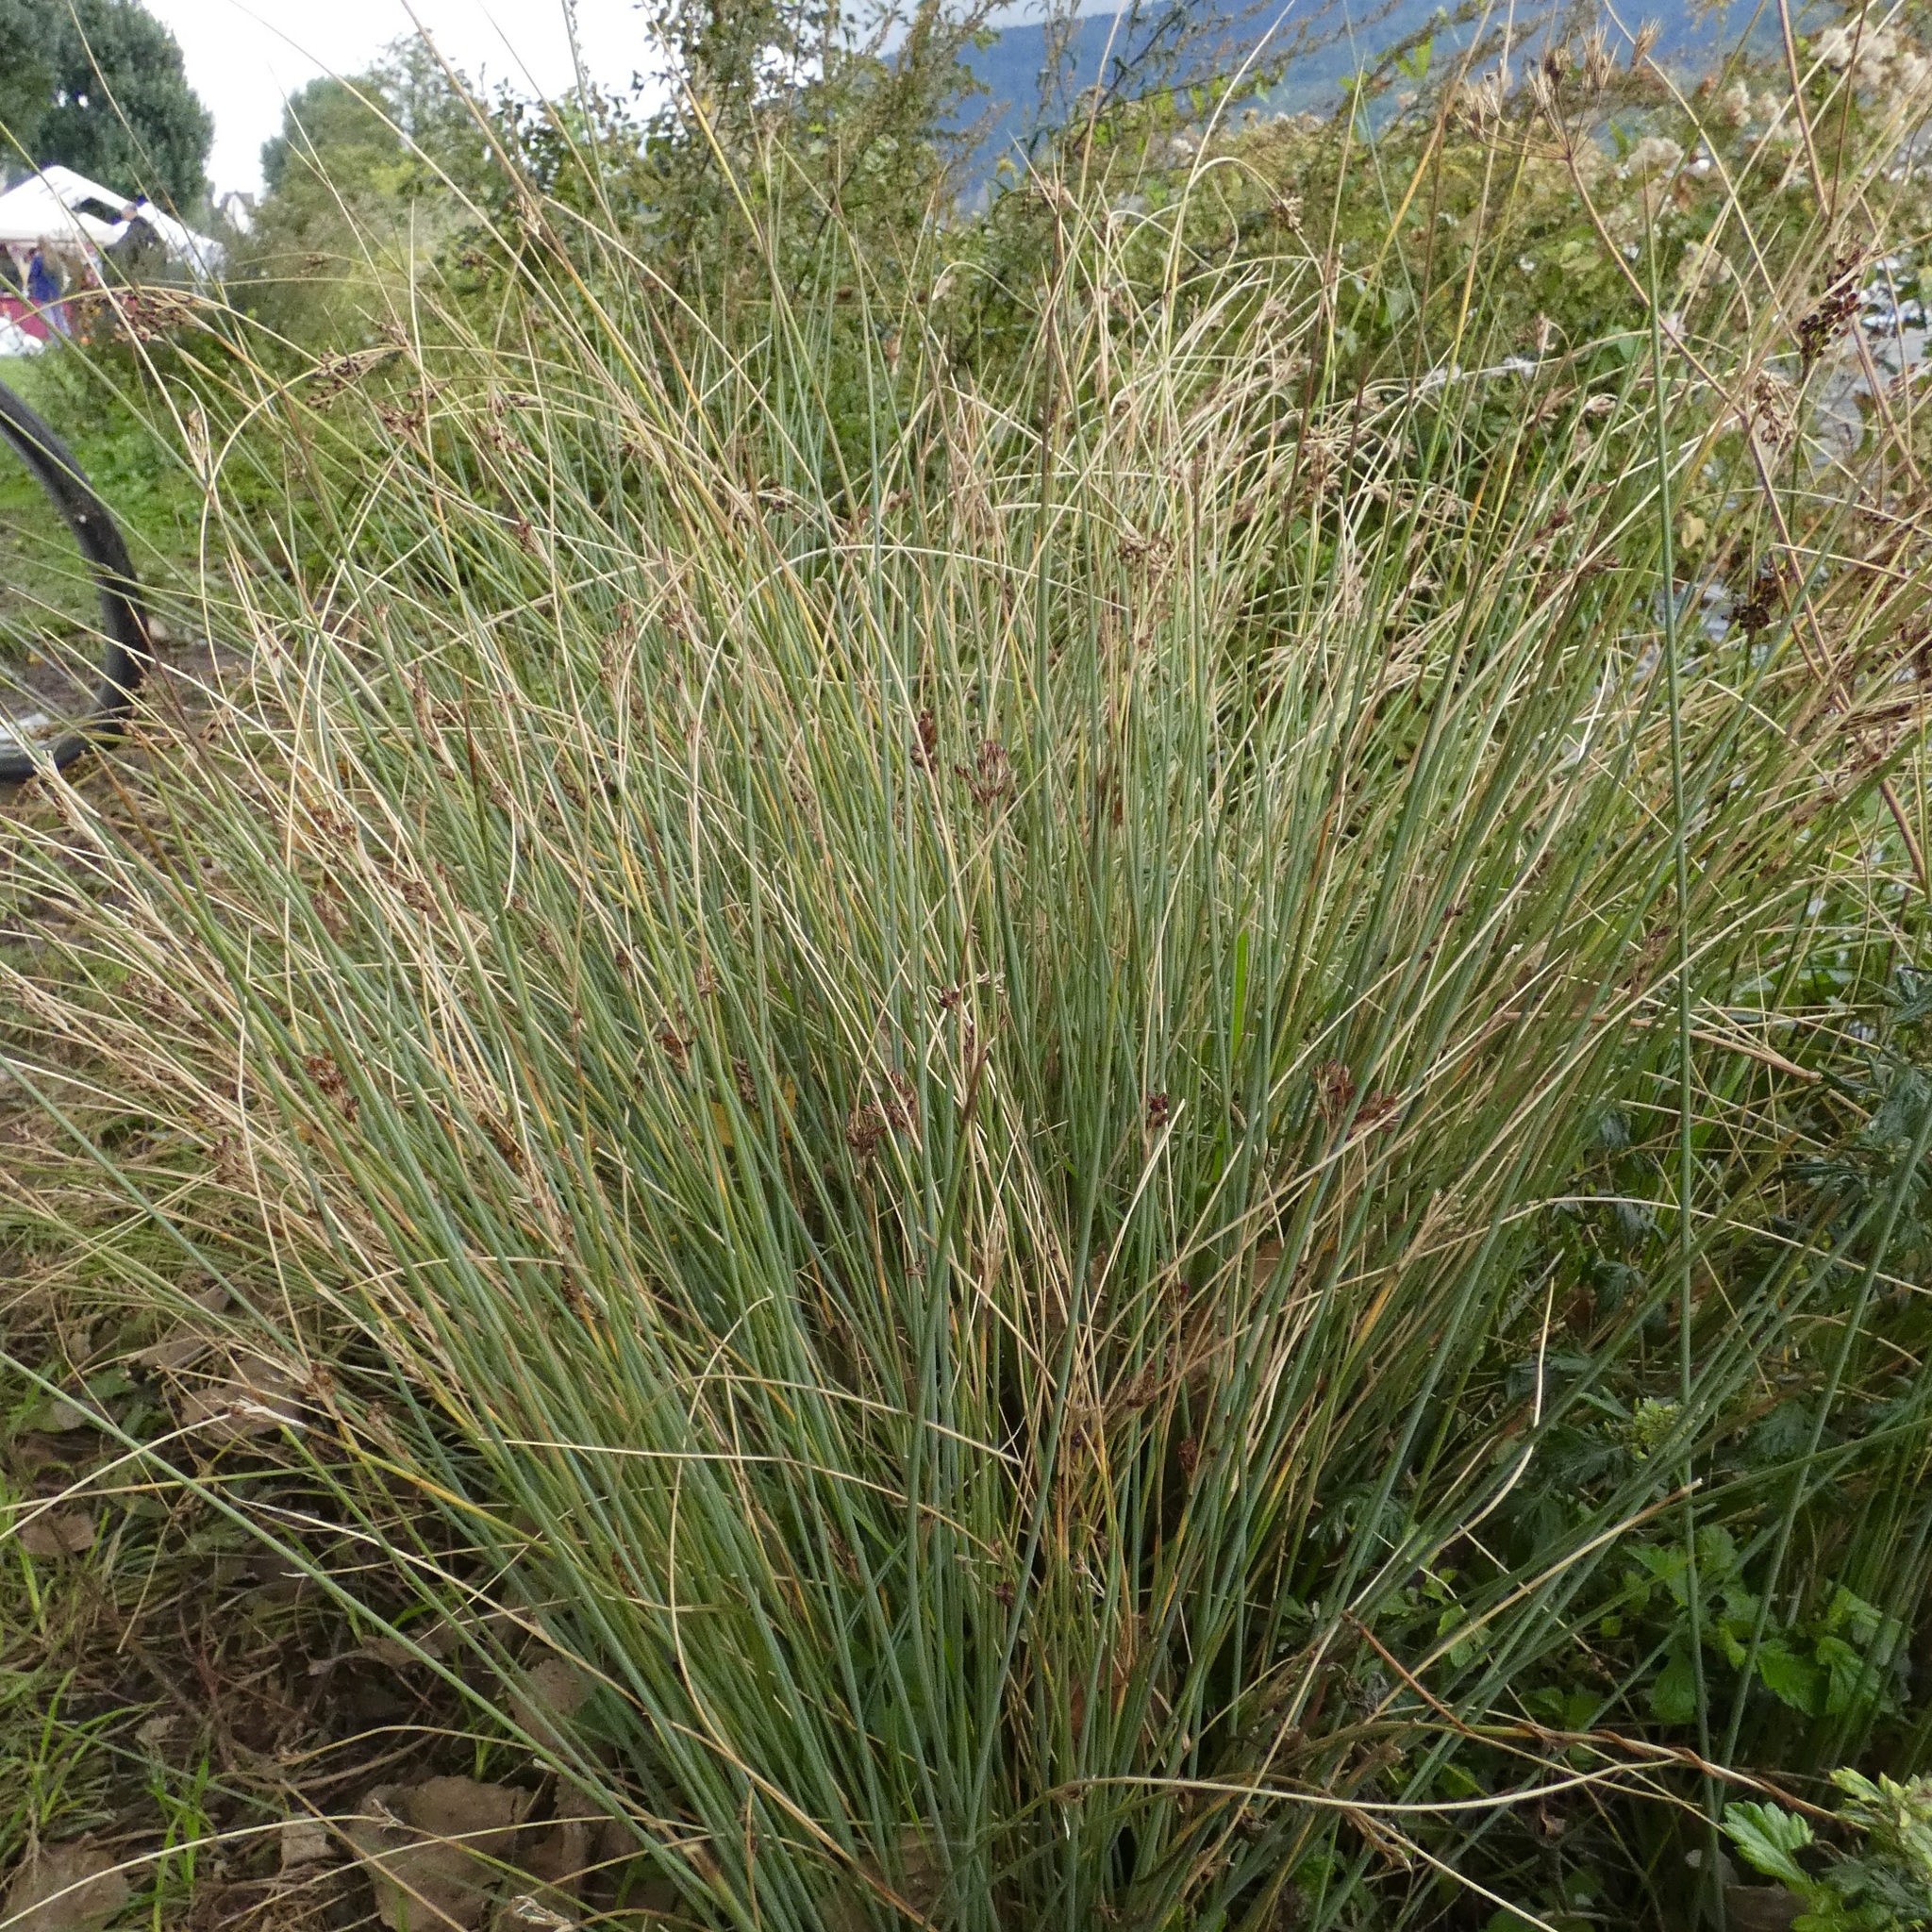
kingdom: Plantae
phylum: Tracheophyta
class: Liliopsida
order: Poales
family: Juncaceae
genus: Juncus
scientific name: Juncus inflexus
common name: Hard rush
